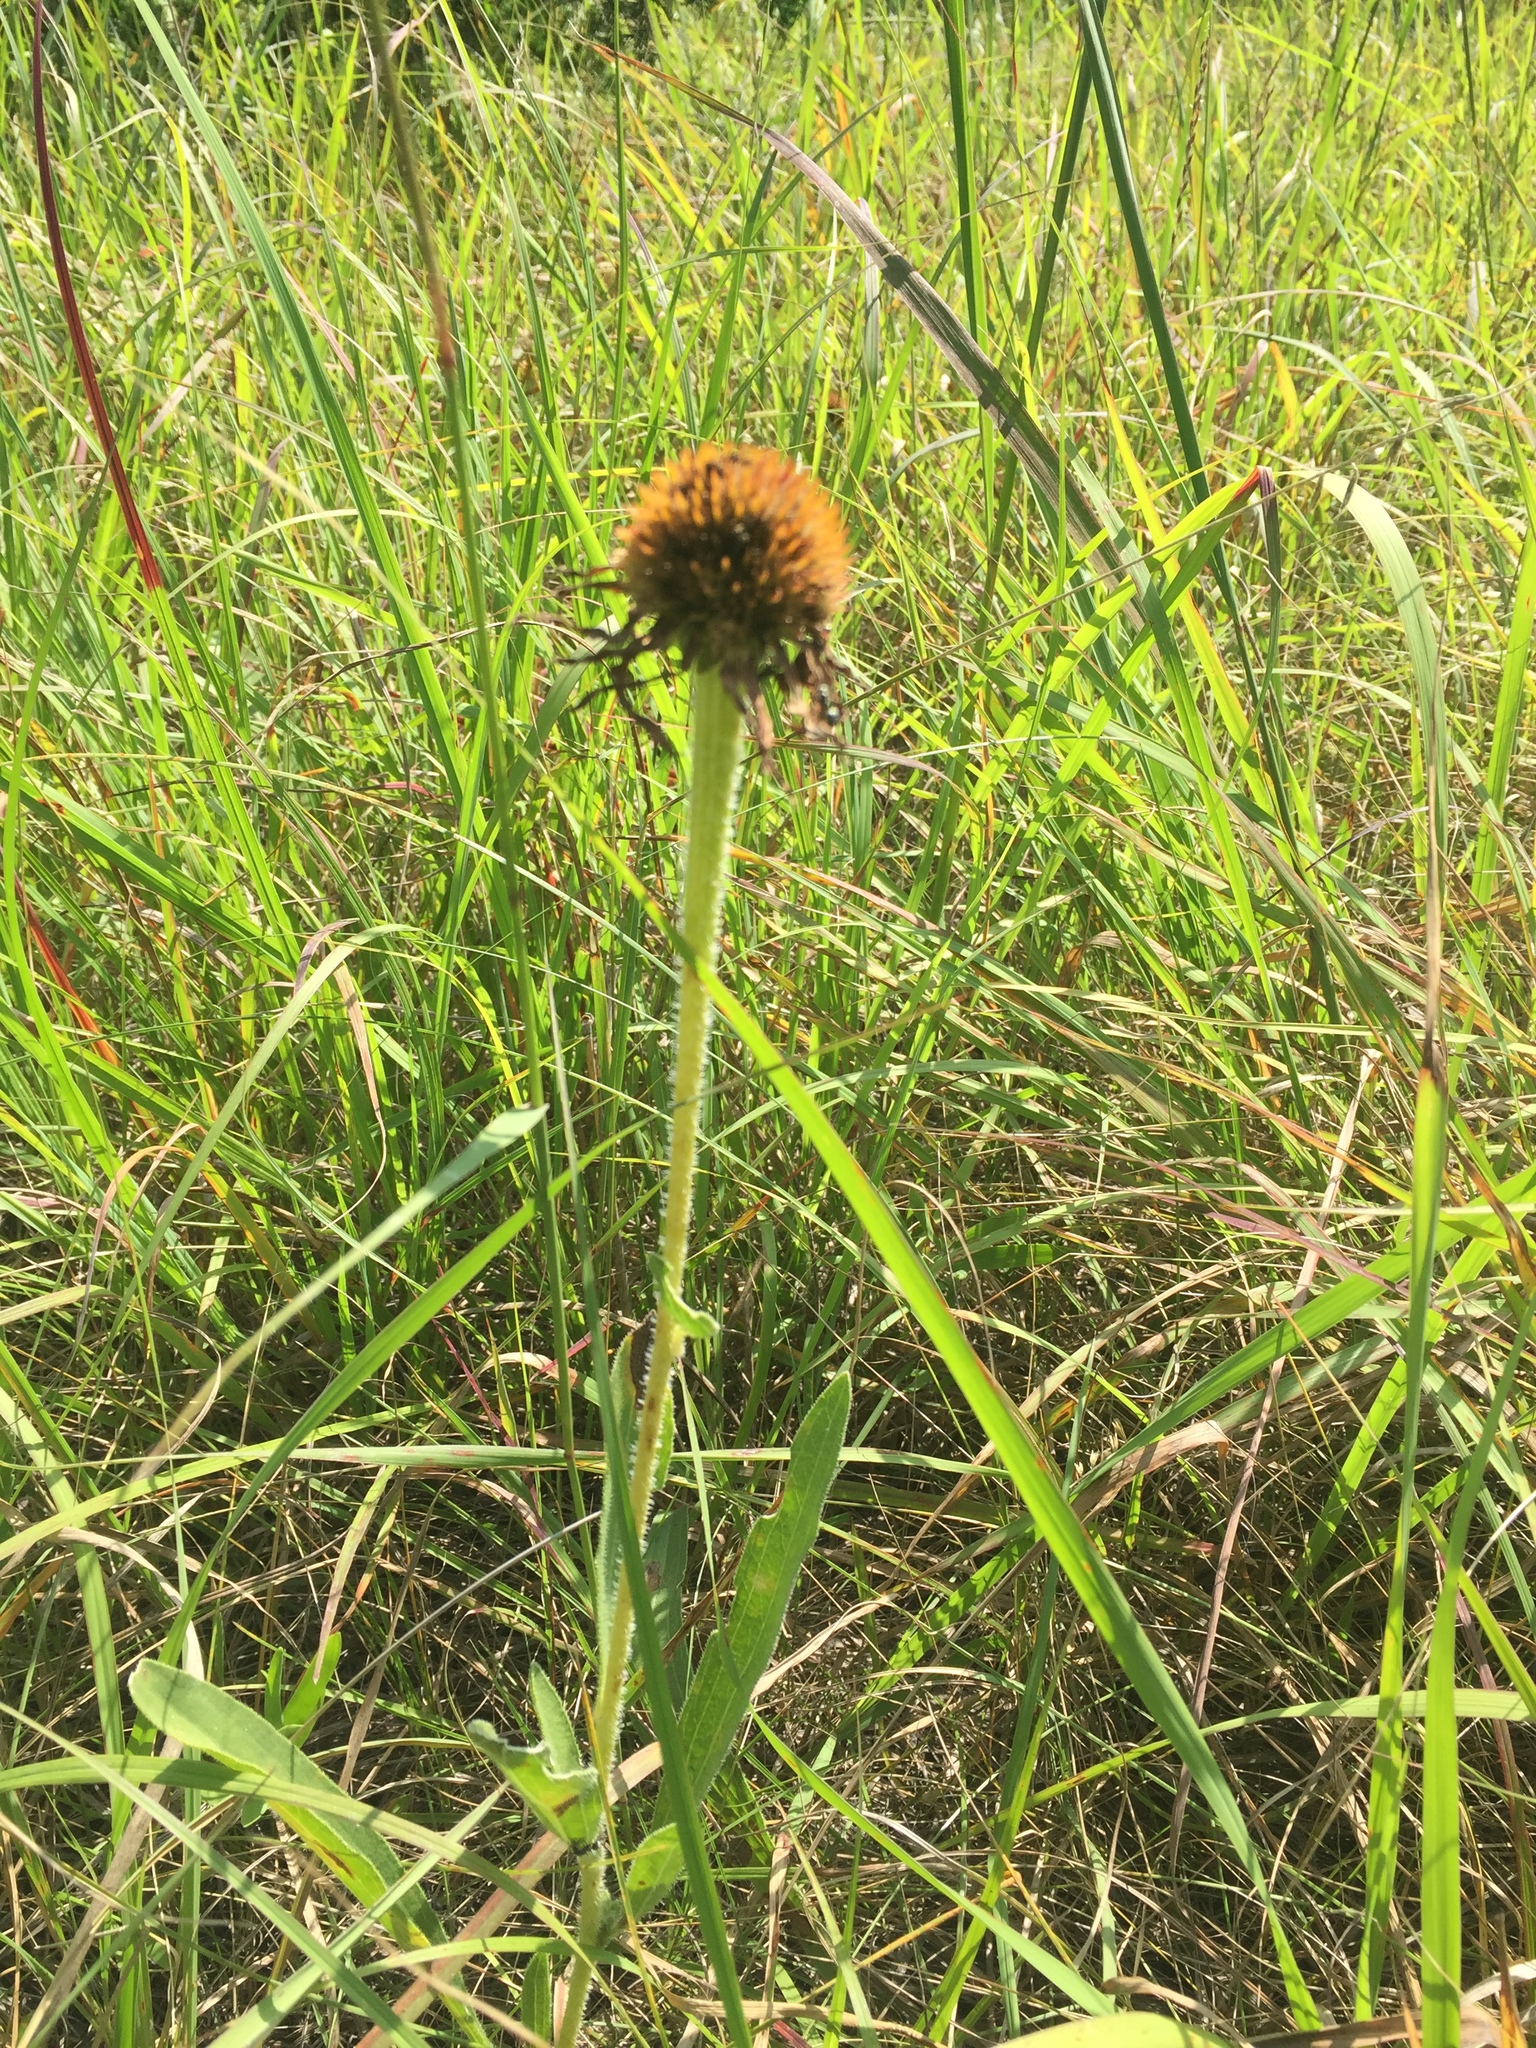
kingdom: Plantae
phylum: Tracheophyta
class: Magnoliopsida
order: Asterales
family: Asteraceae
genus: Echinacea
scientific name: Echinacea angustifolia
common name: Black-sampson echinacea
